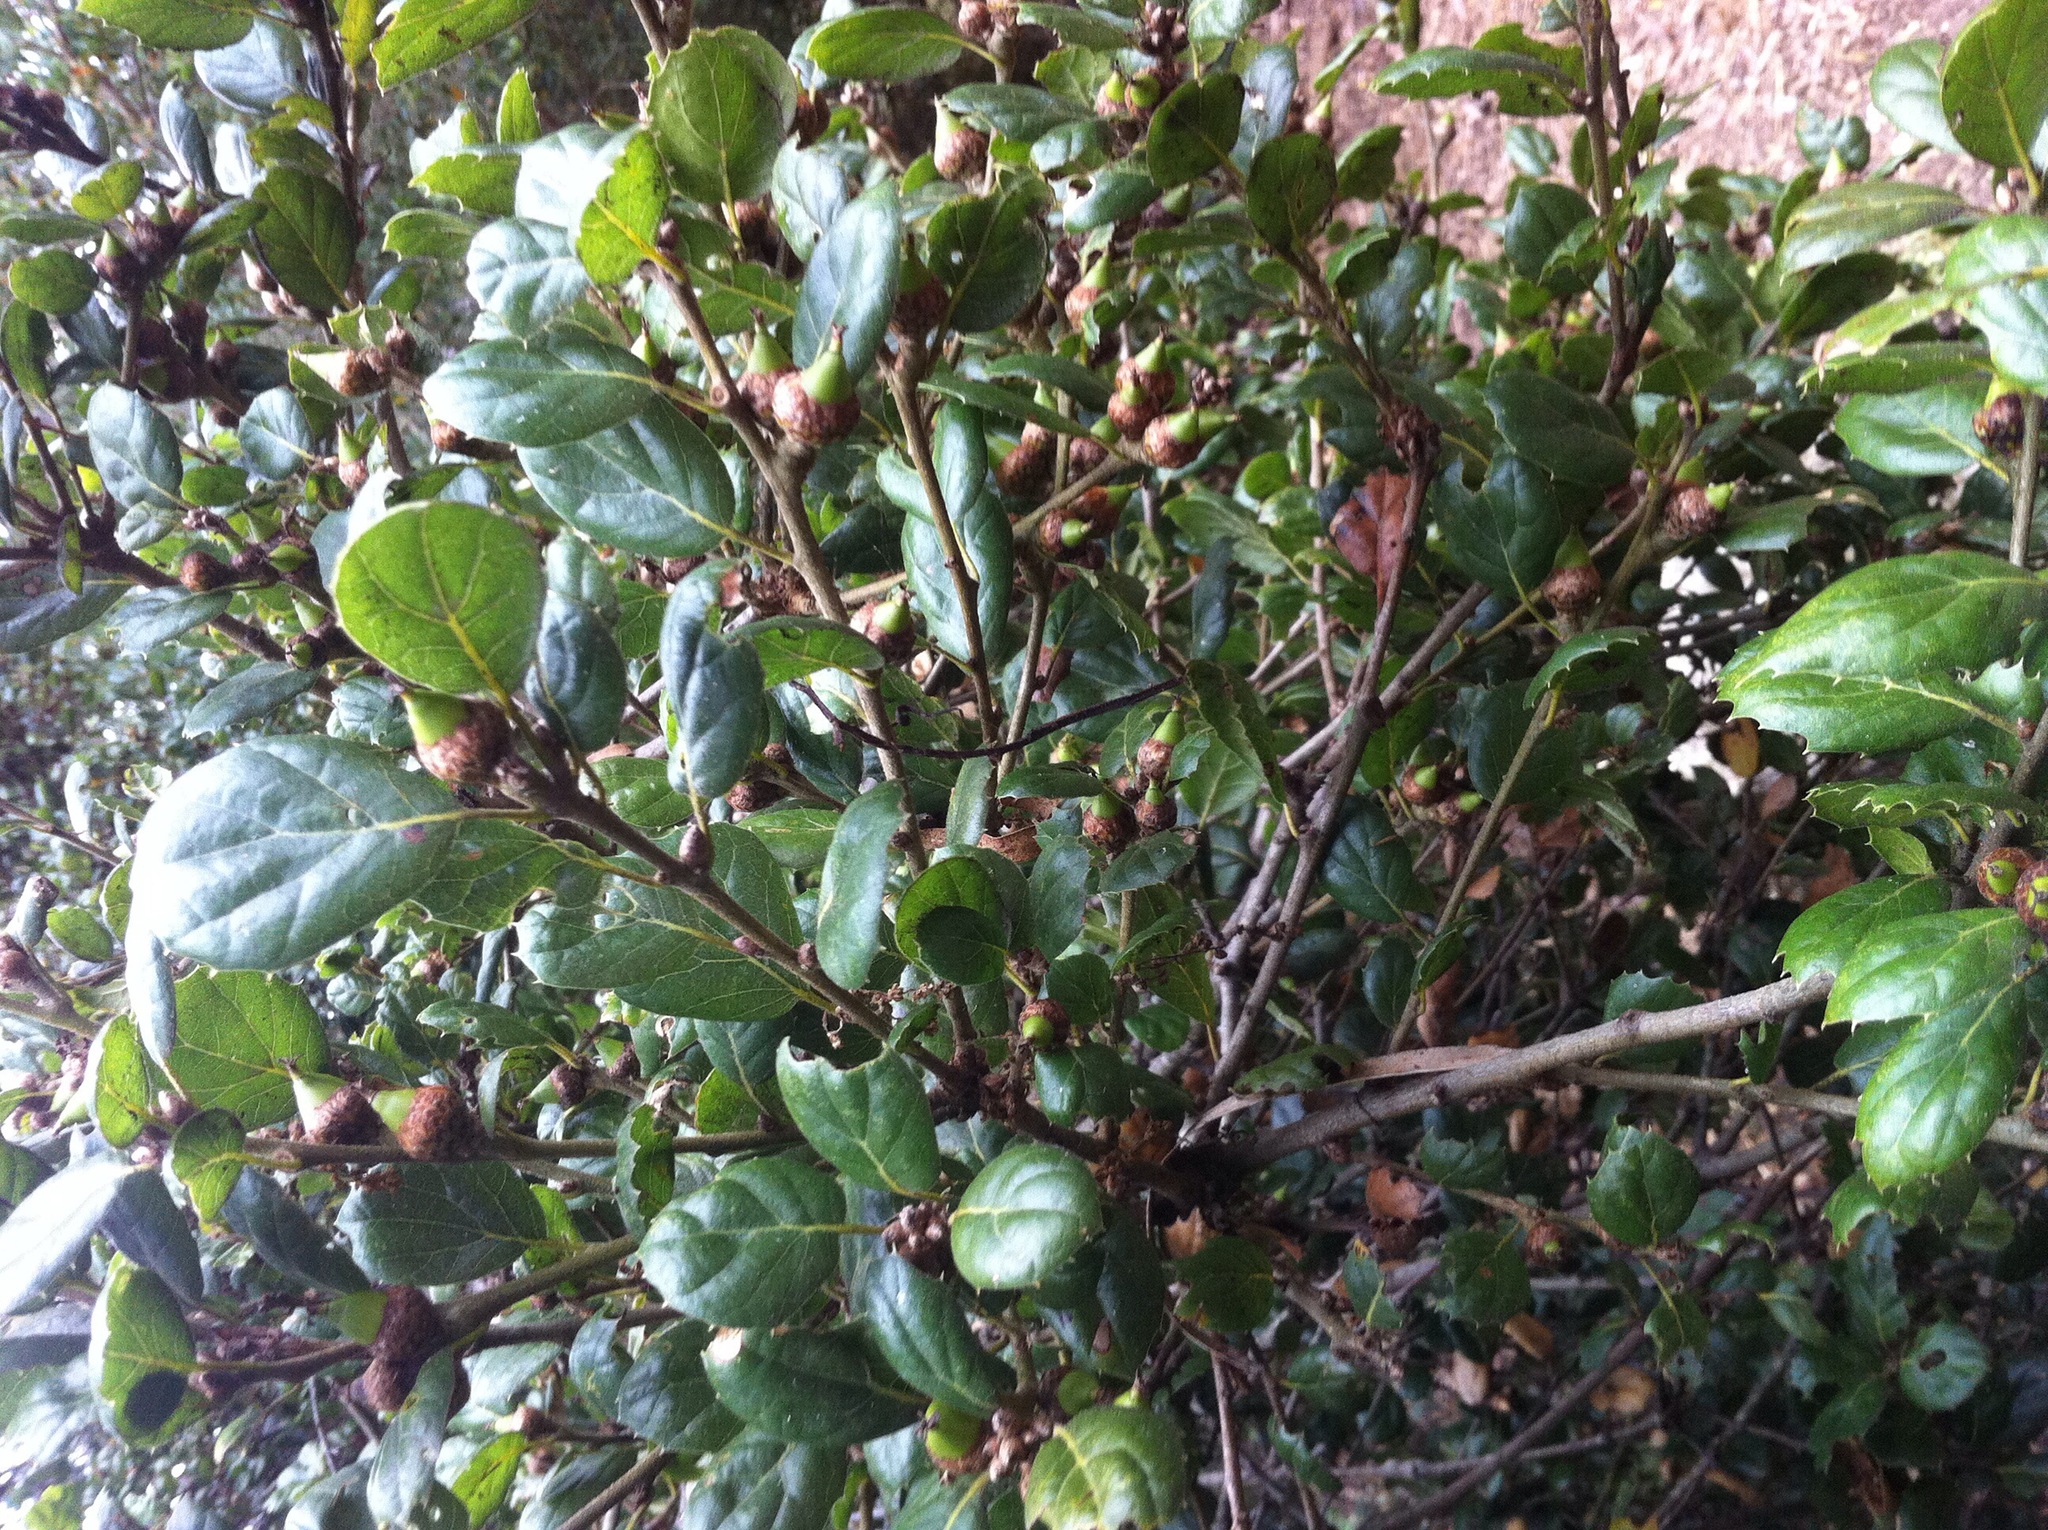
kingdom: Plantae
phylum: Tracheophyta
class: Magnoliopsida
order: Fagales
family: Fagaceae
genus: Quercus
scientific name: Quercus agrifolia
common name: California live oak
